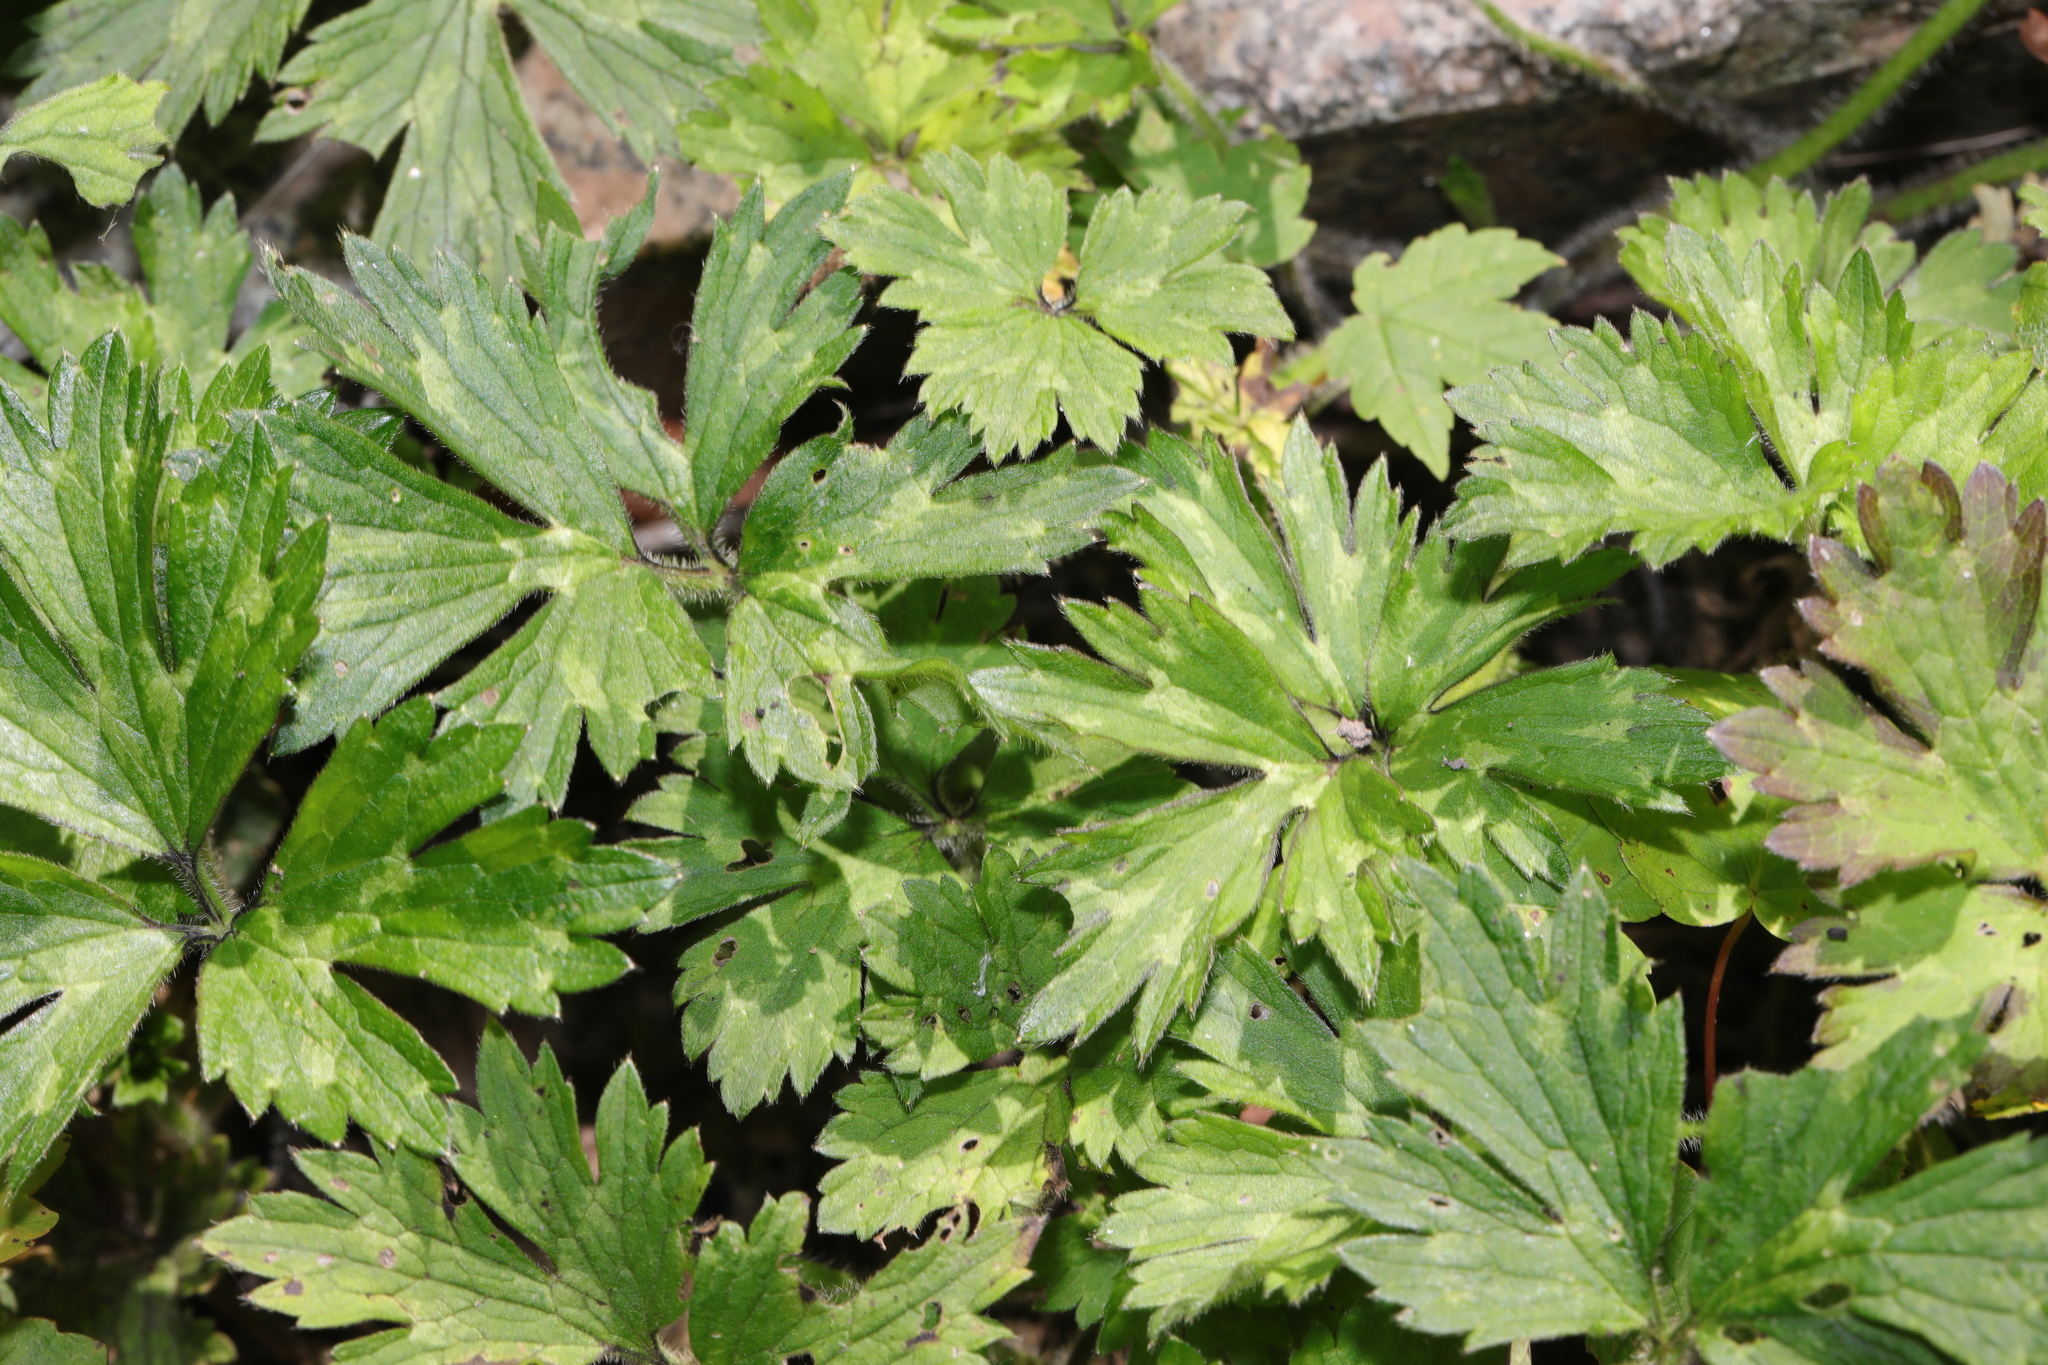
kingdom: Plantae
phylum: Tracheophyta
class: Magnoliopsida
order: Ranunculales
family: Ranunculaceae
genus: Ranunculus
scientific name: Ranunculus repens
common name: Creeping buttercup
